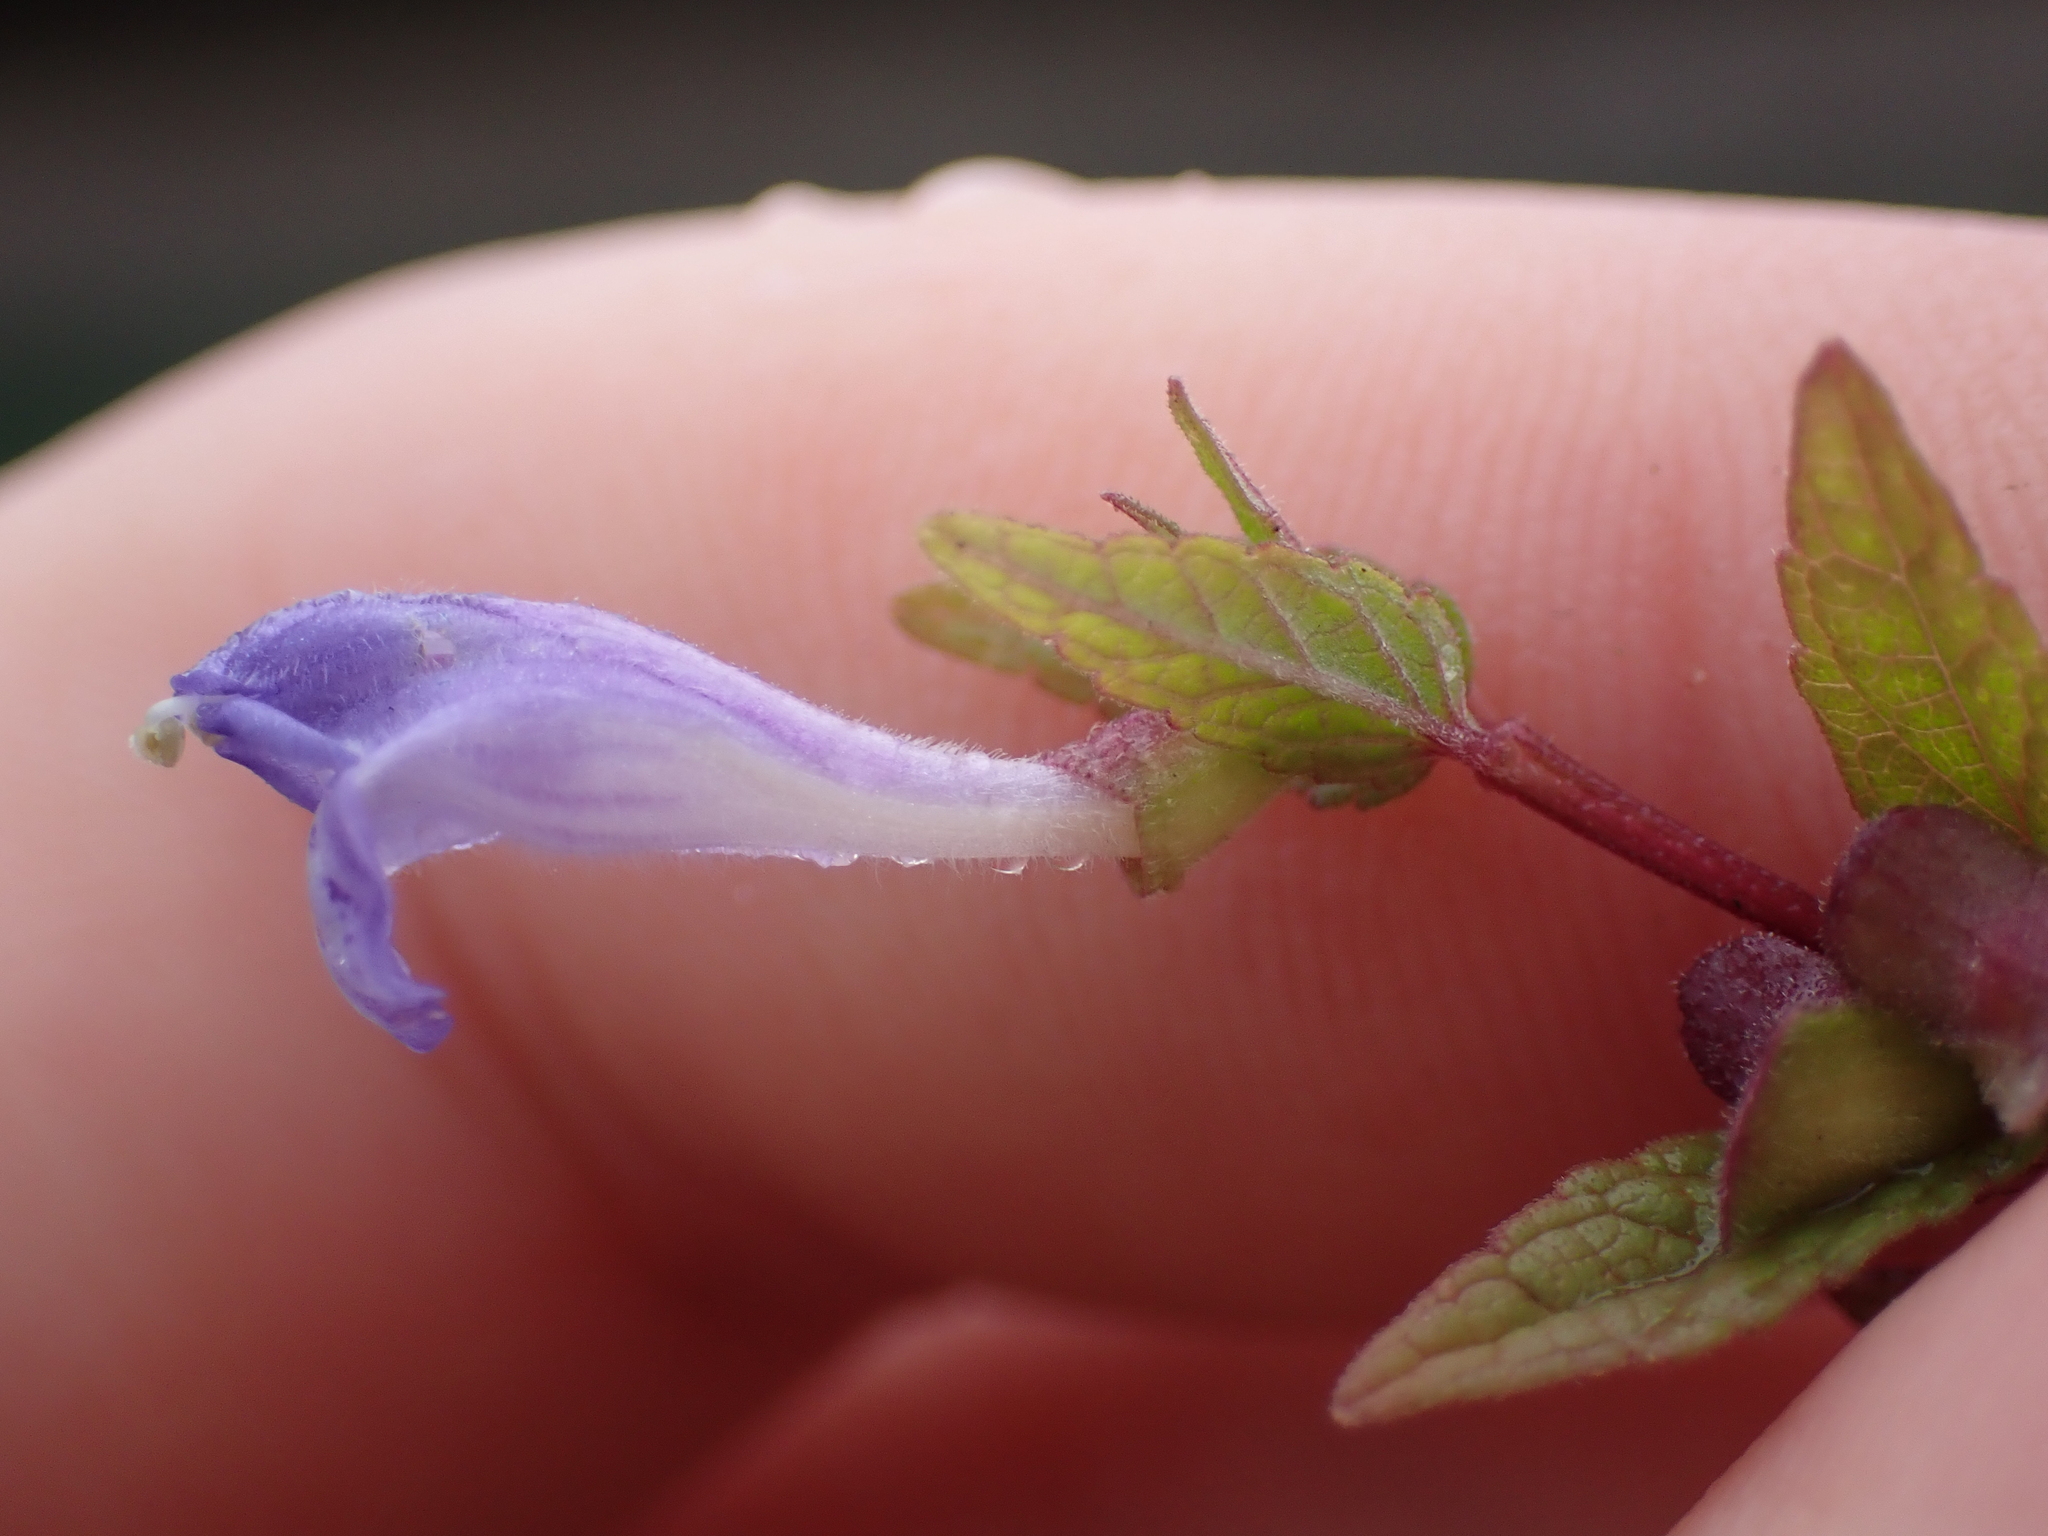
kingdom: Plantae
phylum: Tracheophyta
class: Magnoliopsida
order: Lamiales
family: Lamiaceae
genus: Scutellaria
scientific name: Scutellaria galericulata
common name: Skullcap
